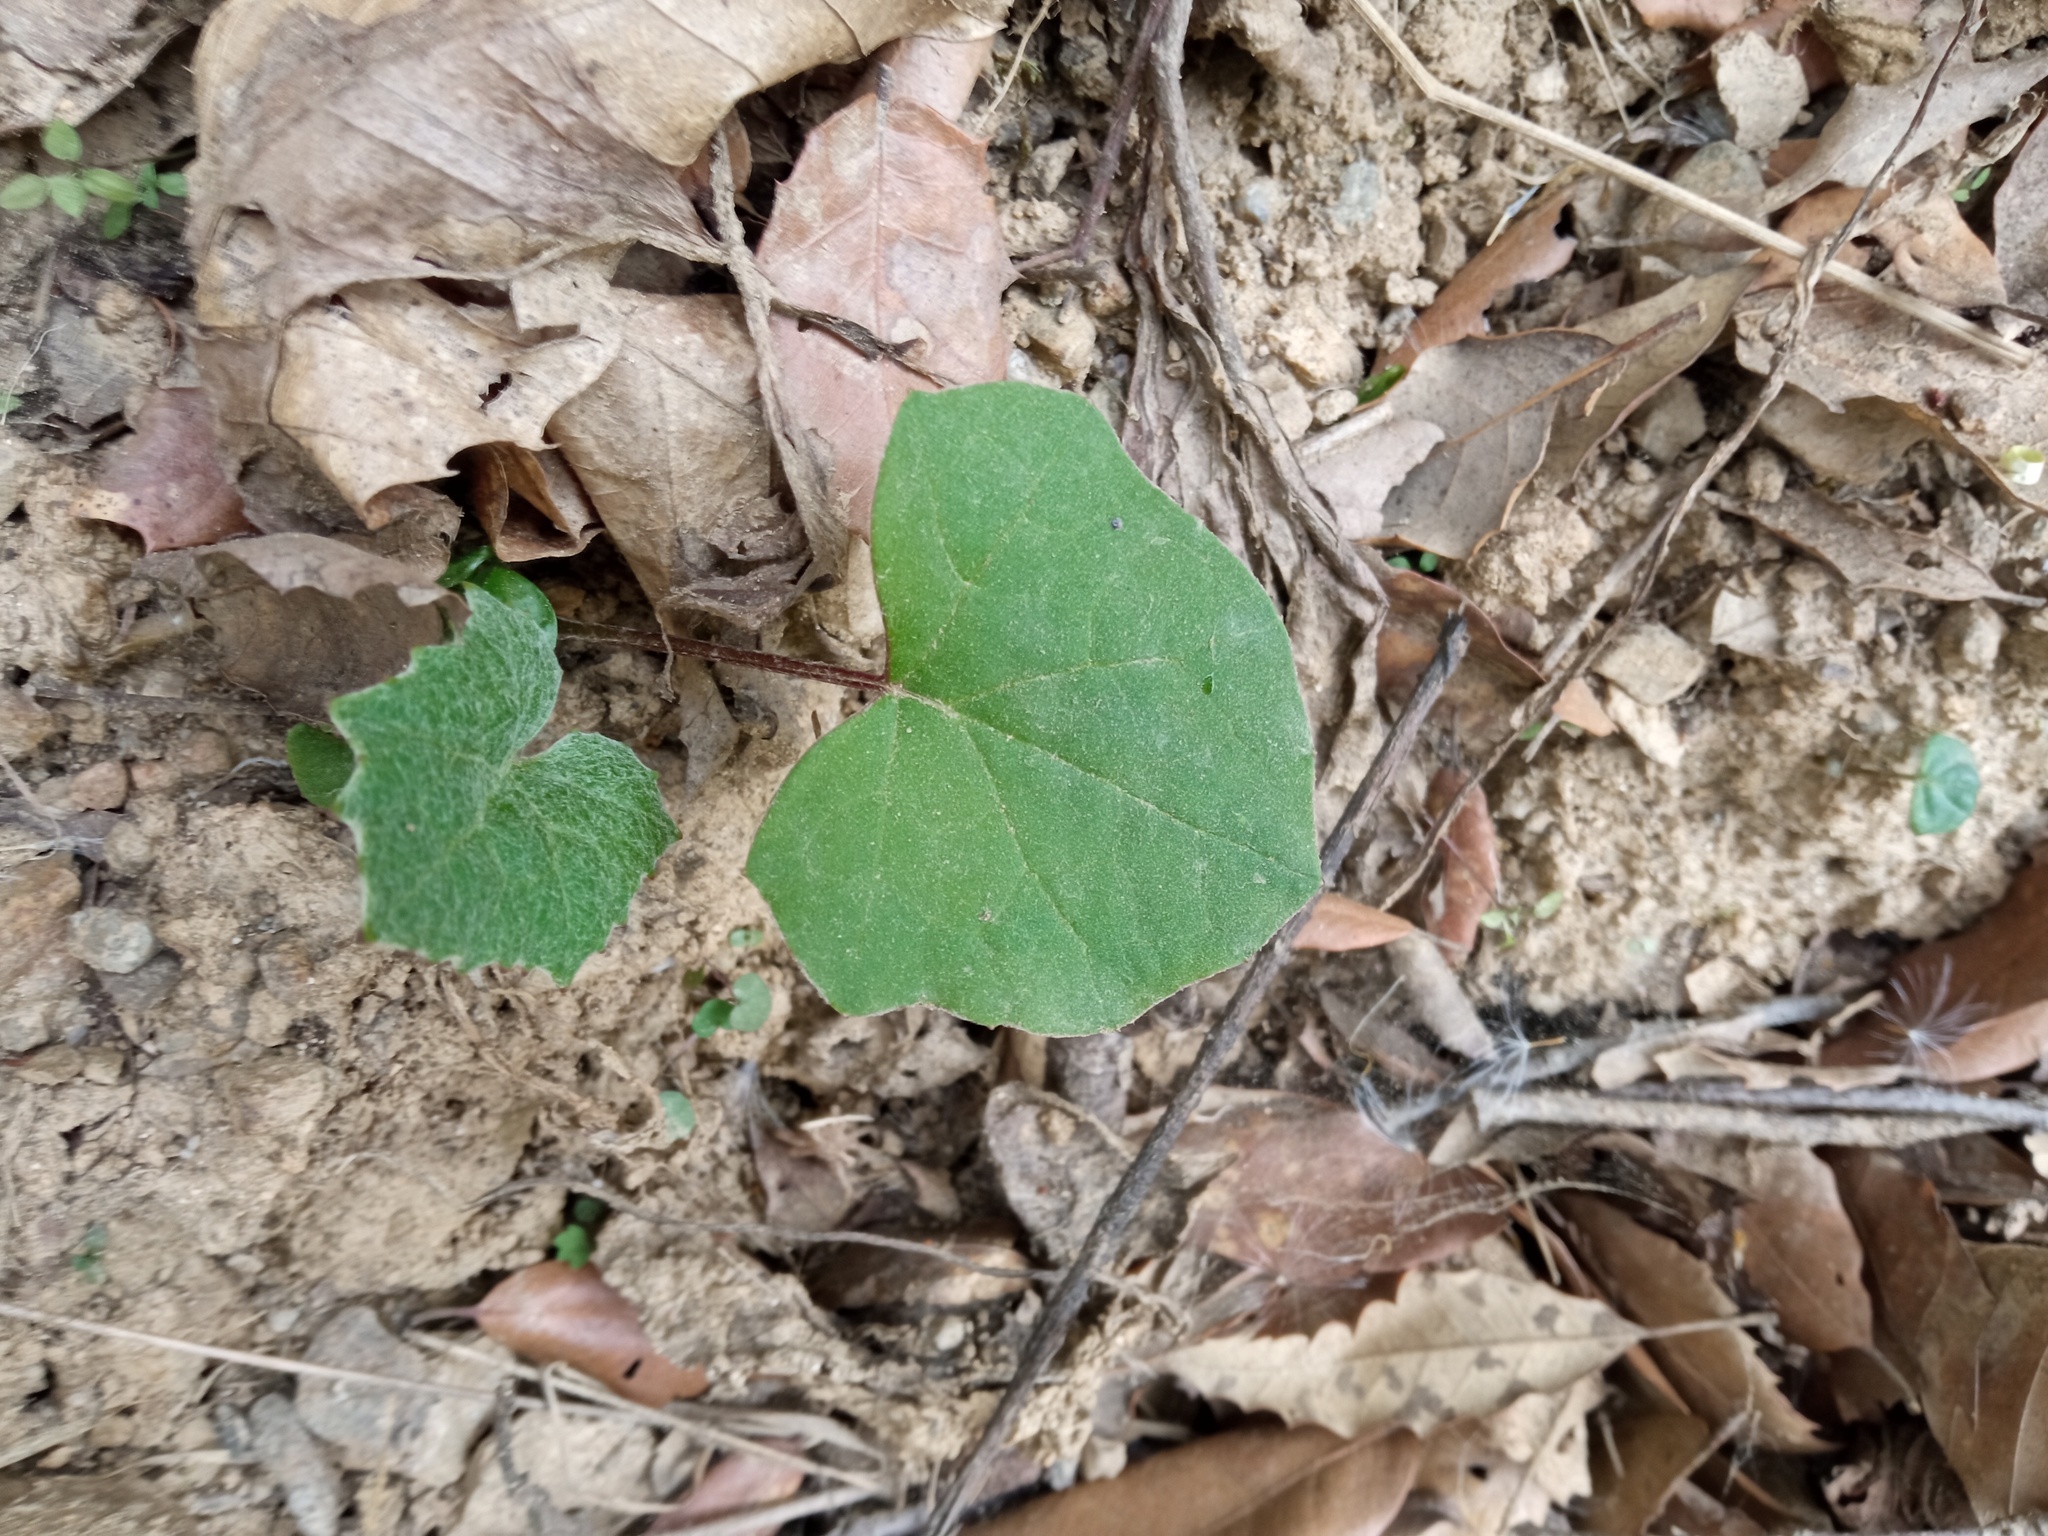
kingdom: Plantae
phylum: Tracheophyta
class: Magnoliopsida
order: Asterales
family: Asteraceae
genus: Tussilago
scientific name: Tussilago farfara
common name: Coltsfoot
